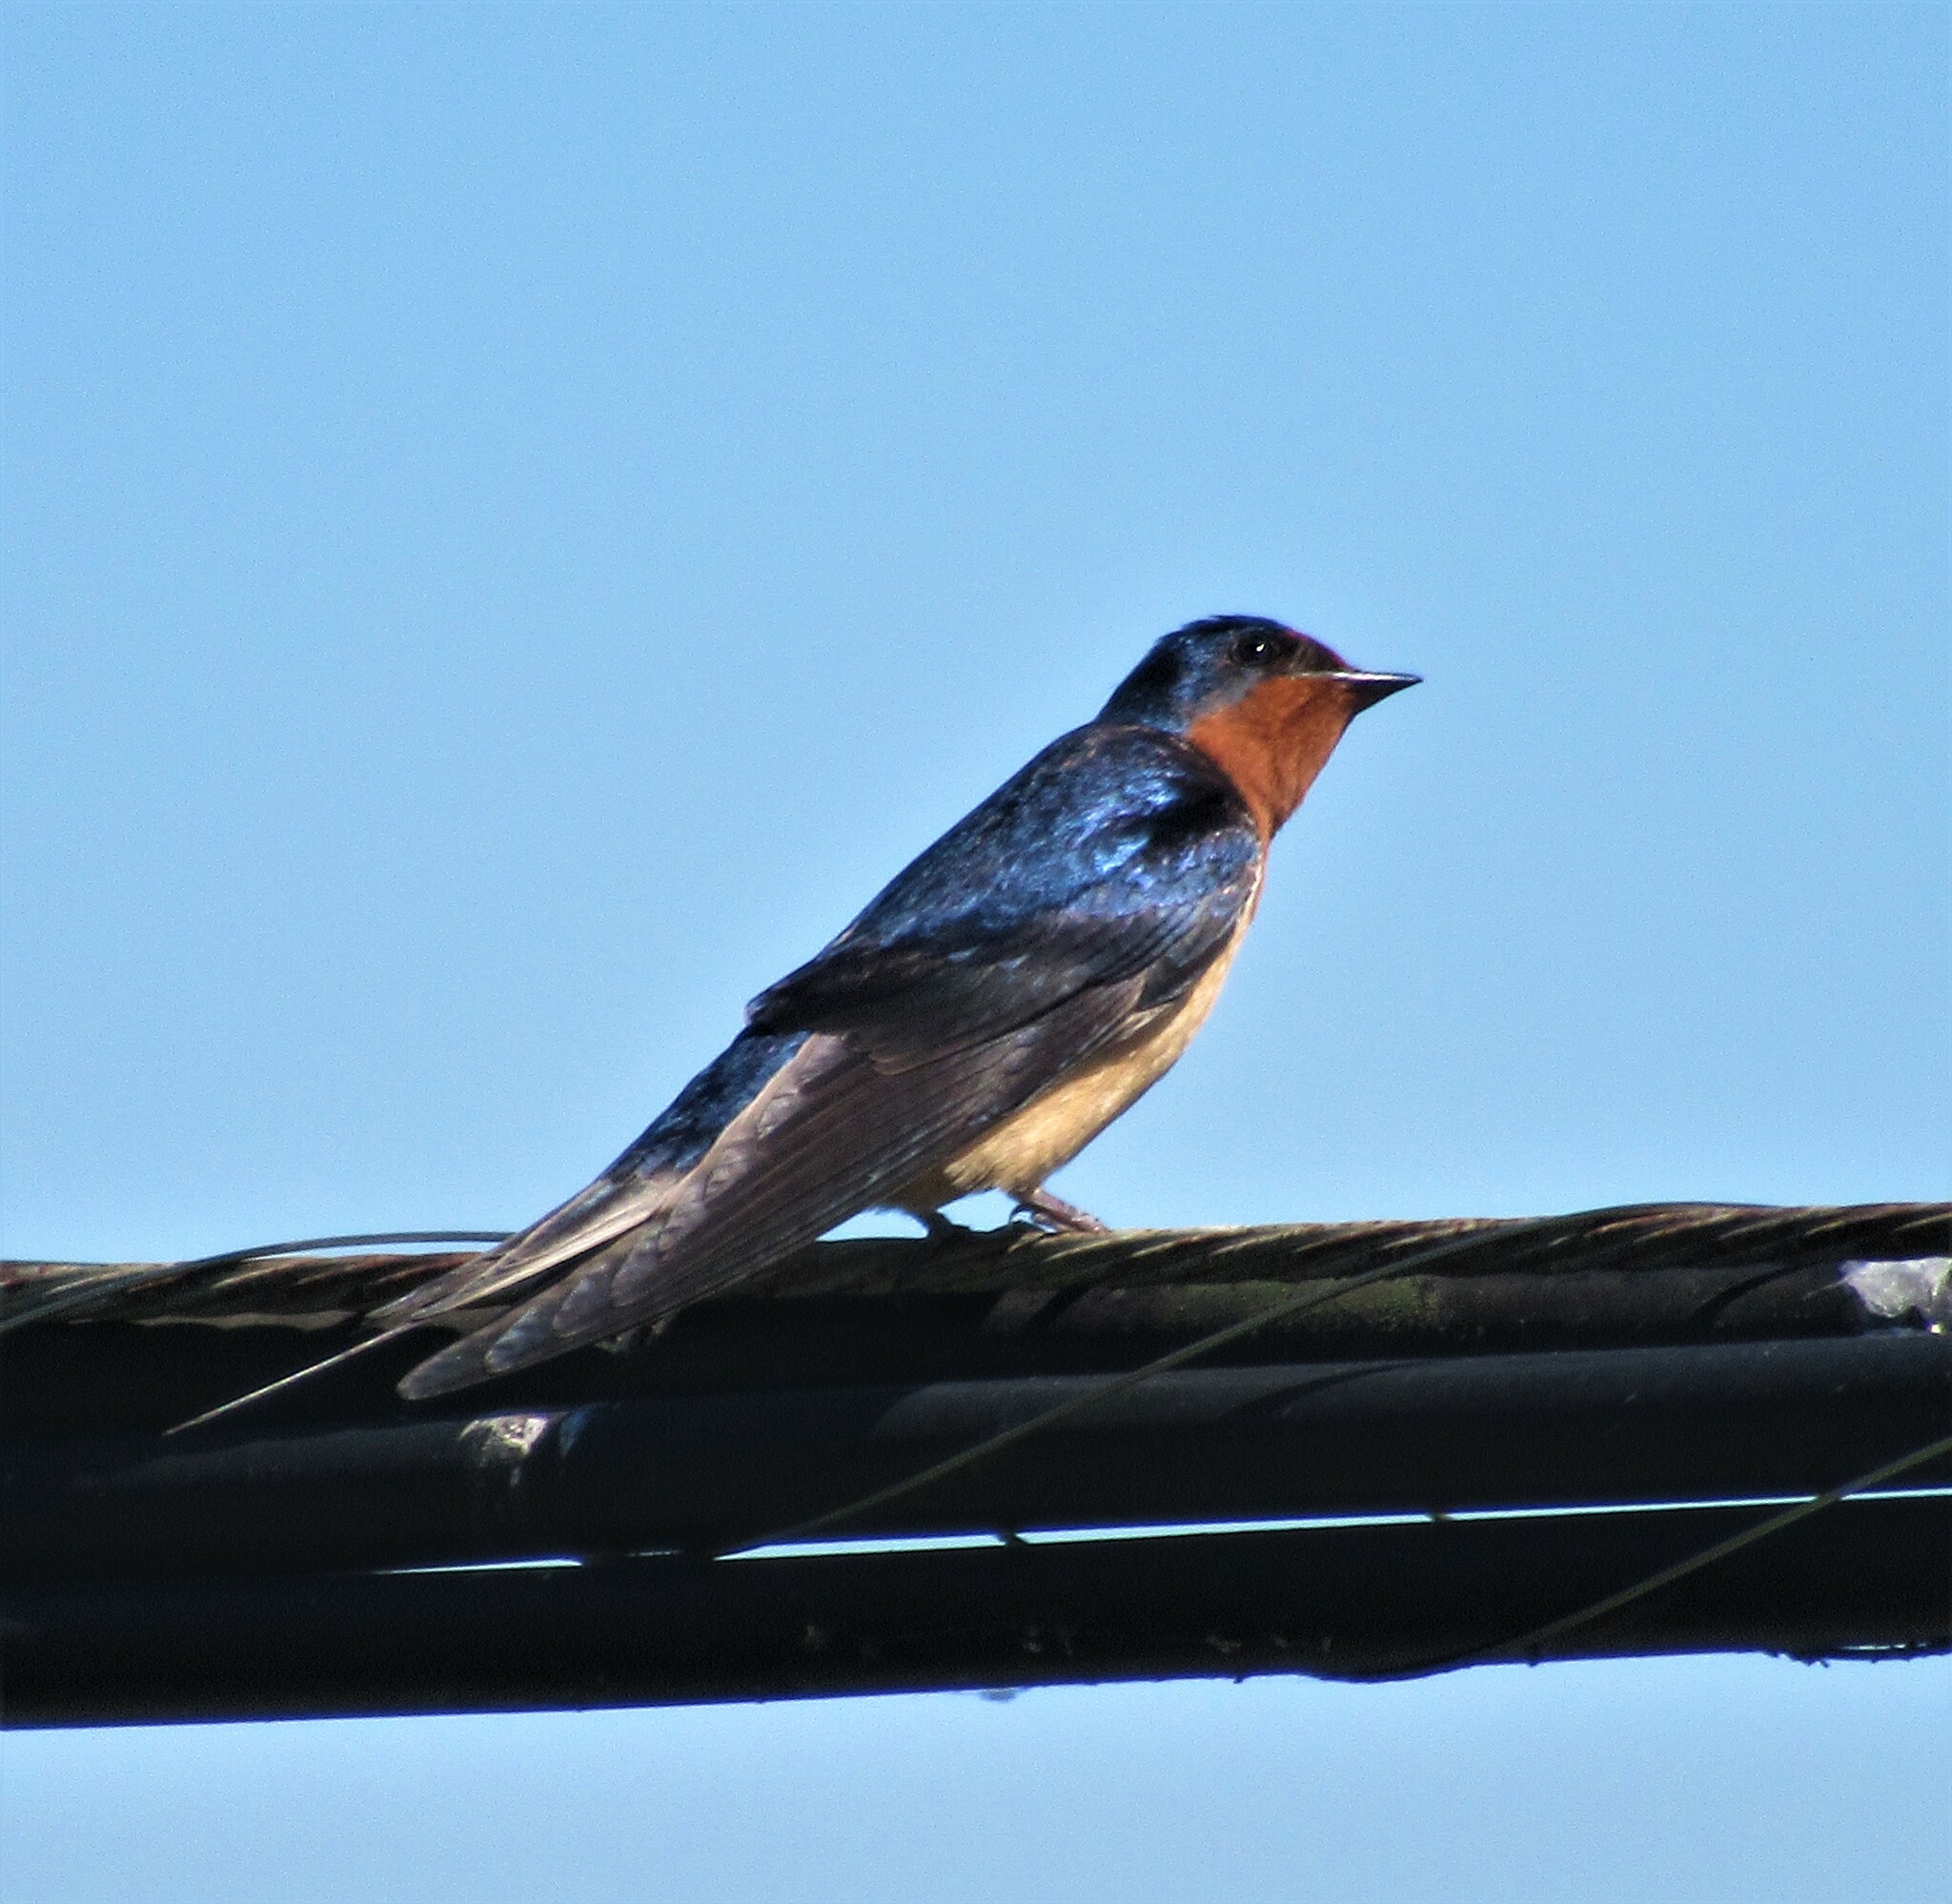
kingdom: Animalia
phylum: Chordata
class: Aves
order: Passeriformes
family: Hirundinidae
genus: Hirundo
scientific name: Hirundo rustica
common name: Barn swallow
